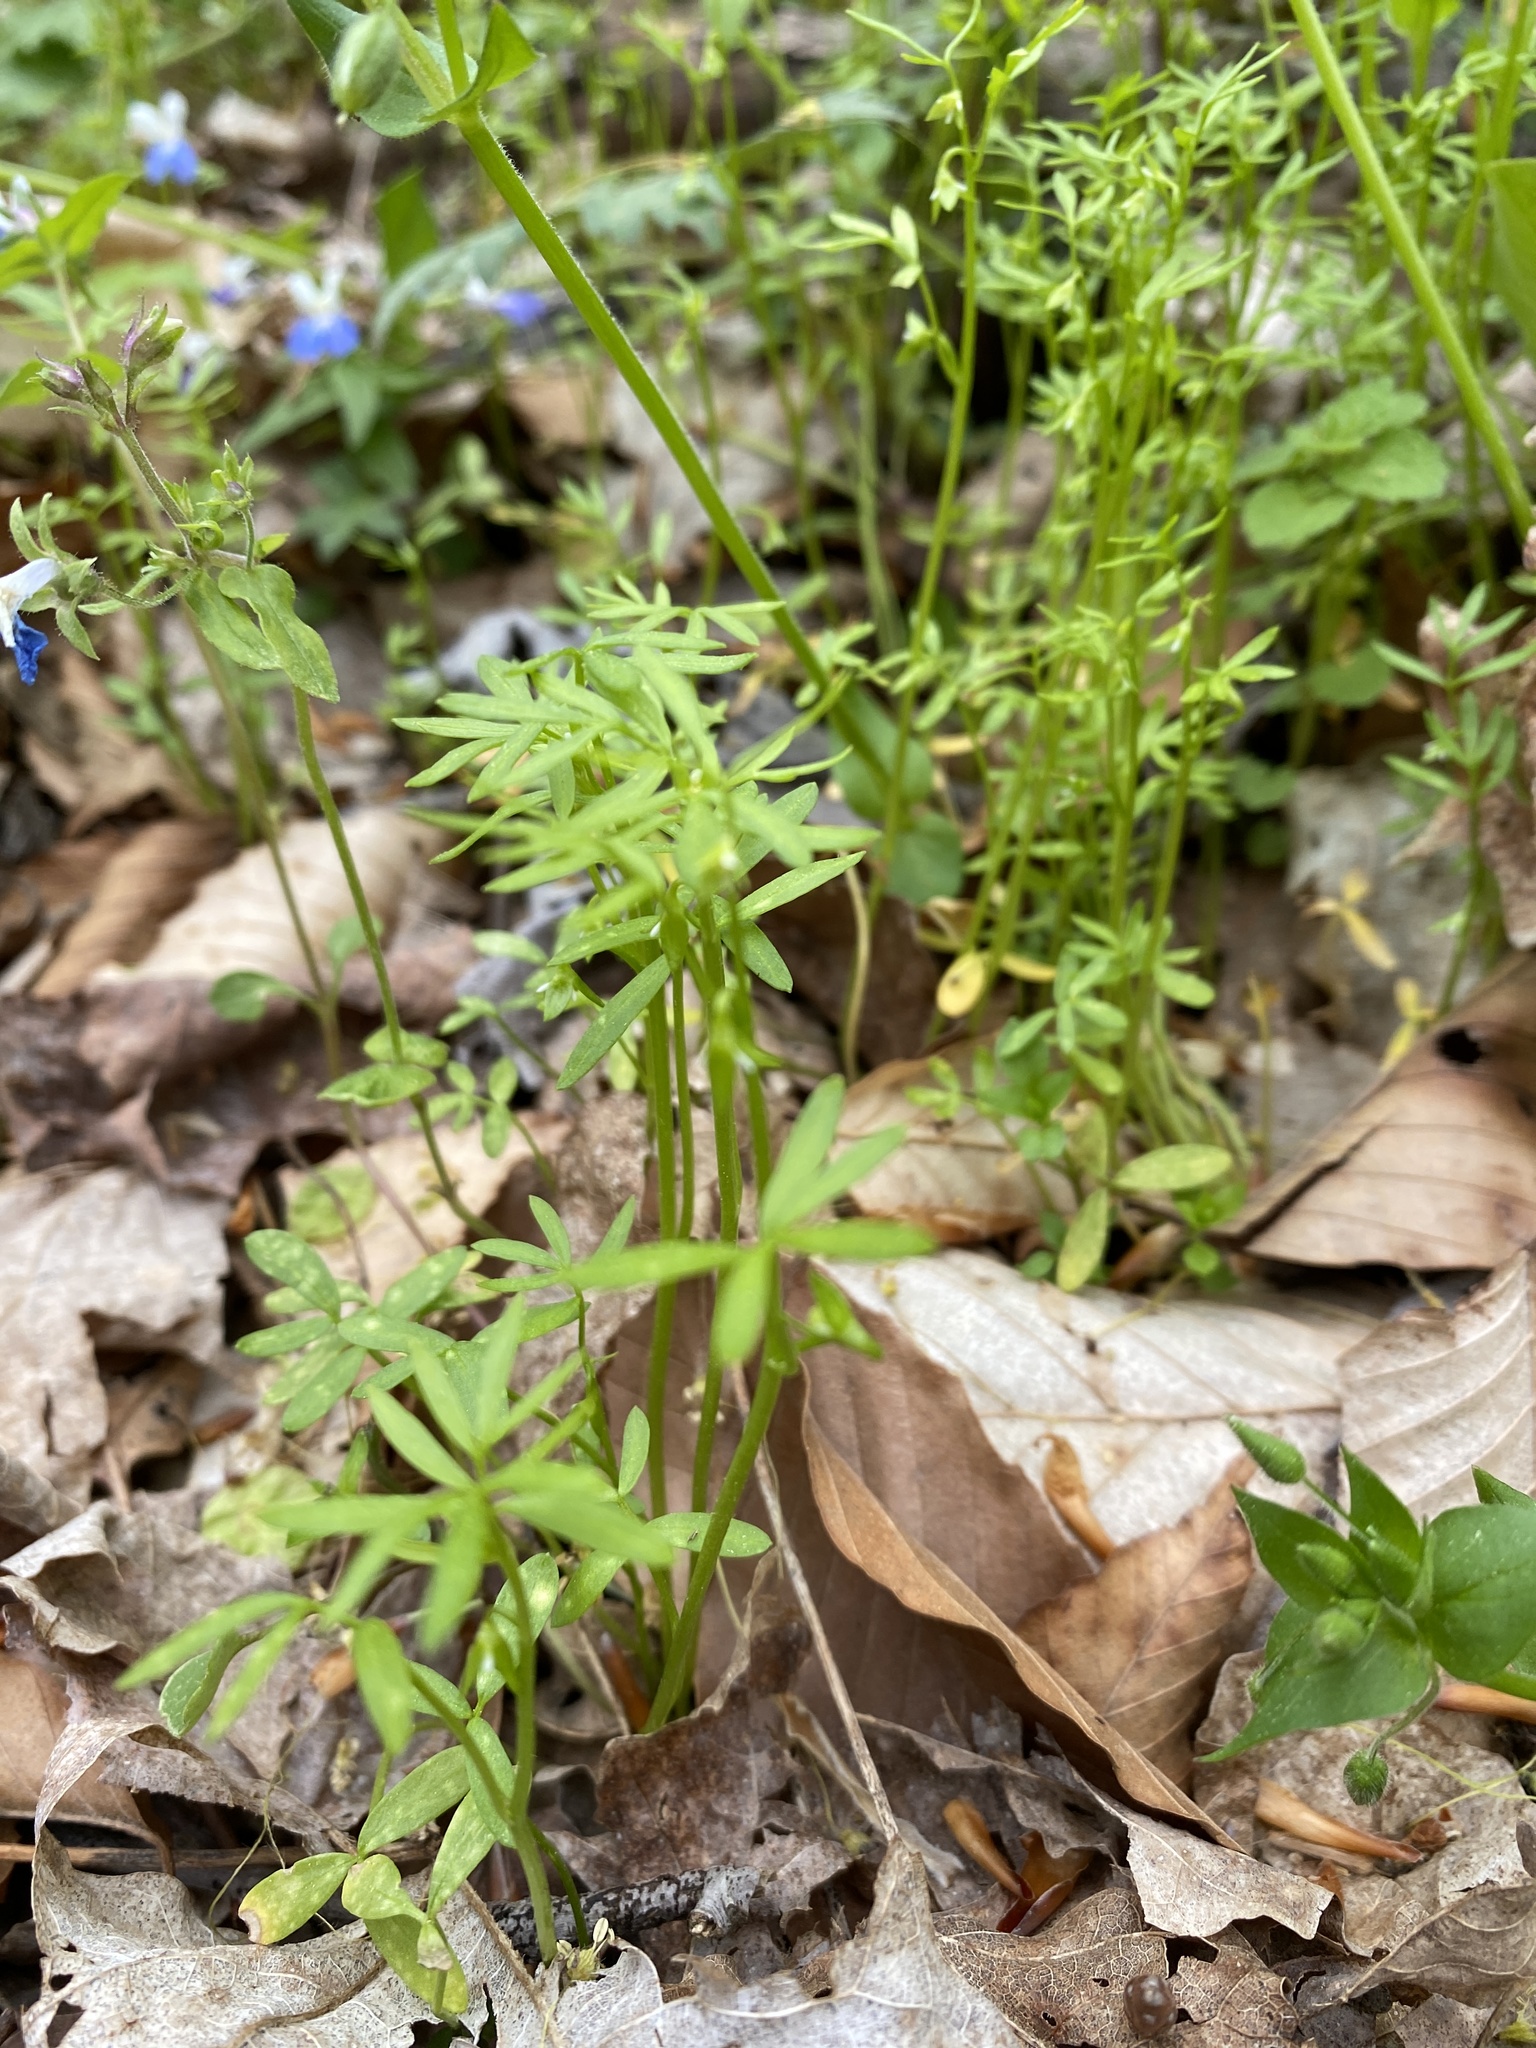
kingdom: Plantae
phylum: Tracheophyta
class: Magnoliopsida
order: Brassicales
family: Limnanthaceae
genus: Floerkea
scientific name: Floerkea proserpinacoides
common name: False mermaid
